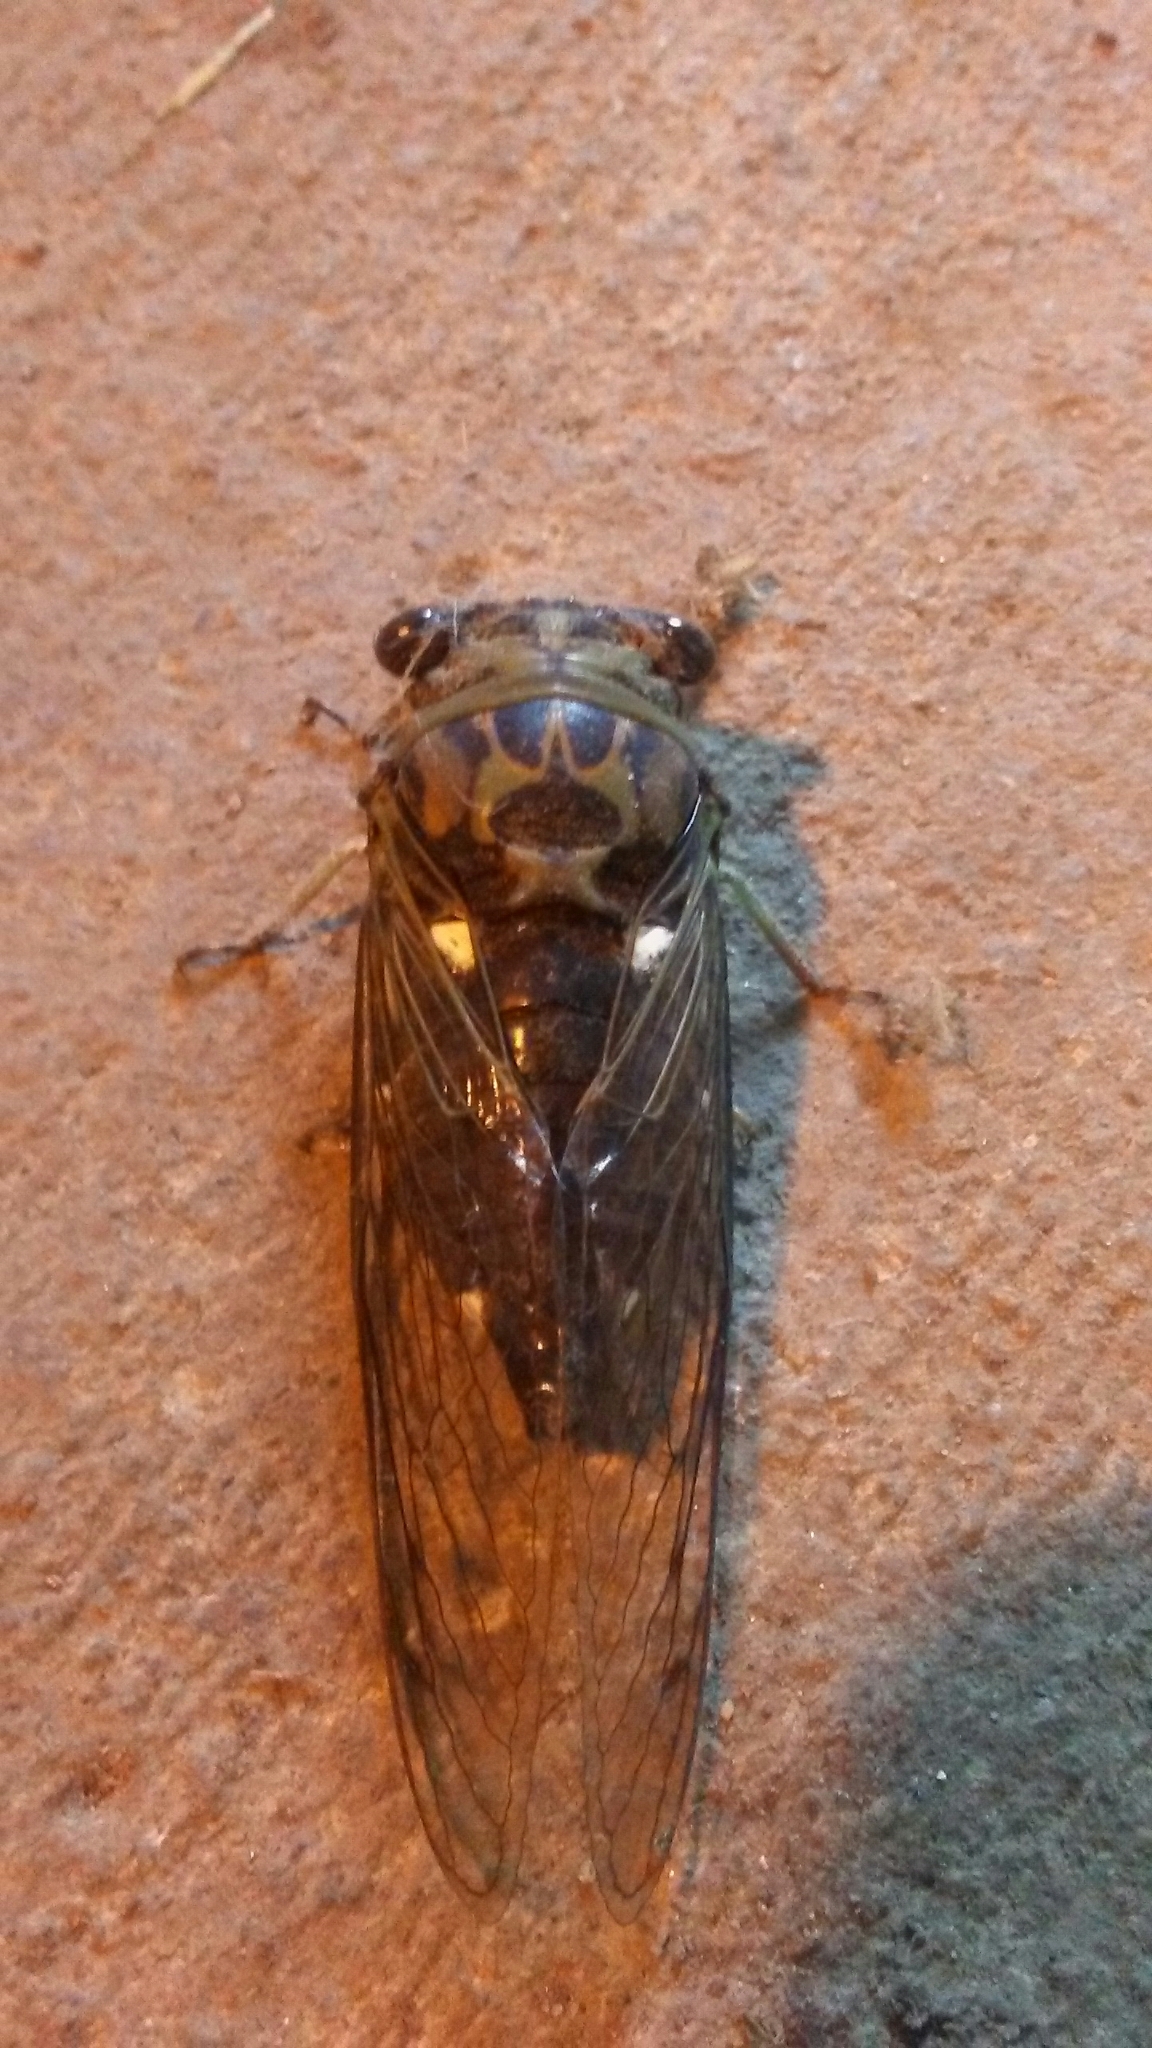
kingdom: Animalia
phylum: Arthropoda
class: Insecta
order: Hemiptera
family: Cicadidae
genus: Neotibicen
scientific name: Neotibicen pruinosus
